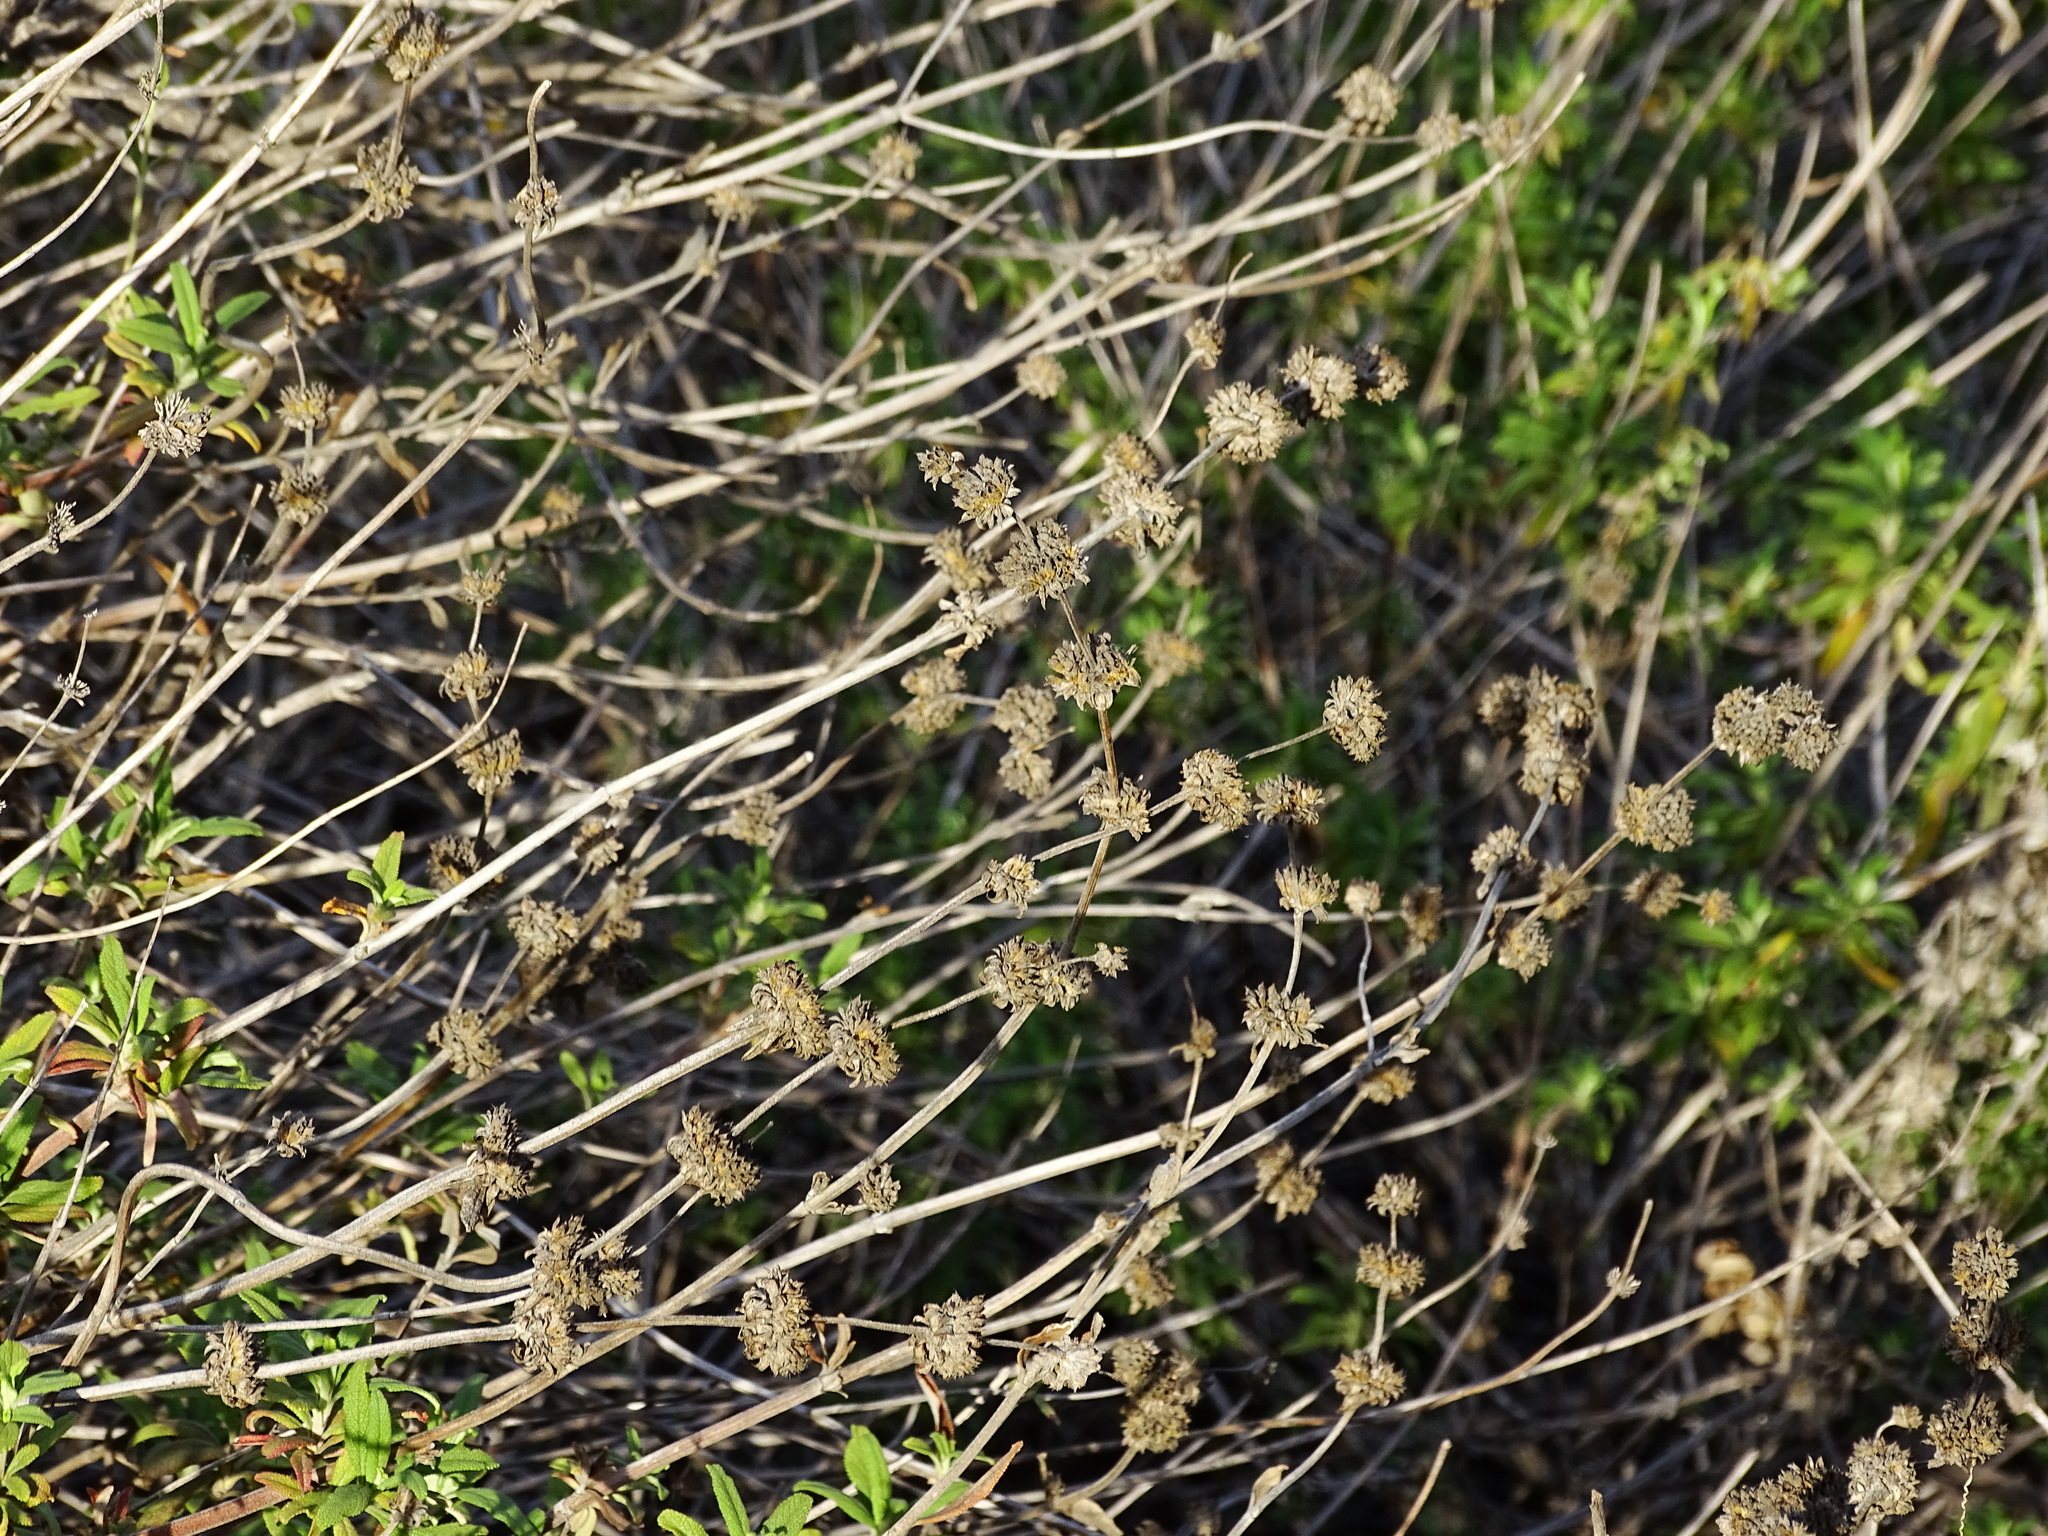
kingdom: Plantae
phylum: Tracheophyta
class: Magnoliopsida
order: Lamiales
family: Lamiaceae
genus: Salvia
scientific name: Salvia mellifera
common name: Black sage
